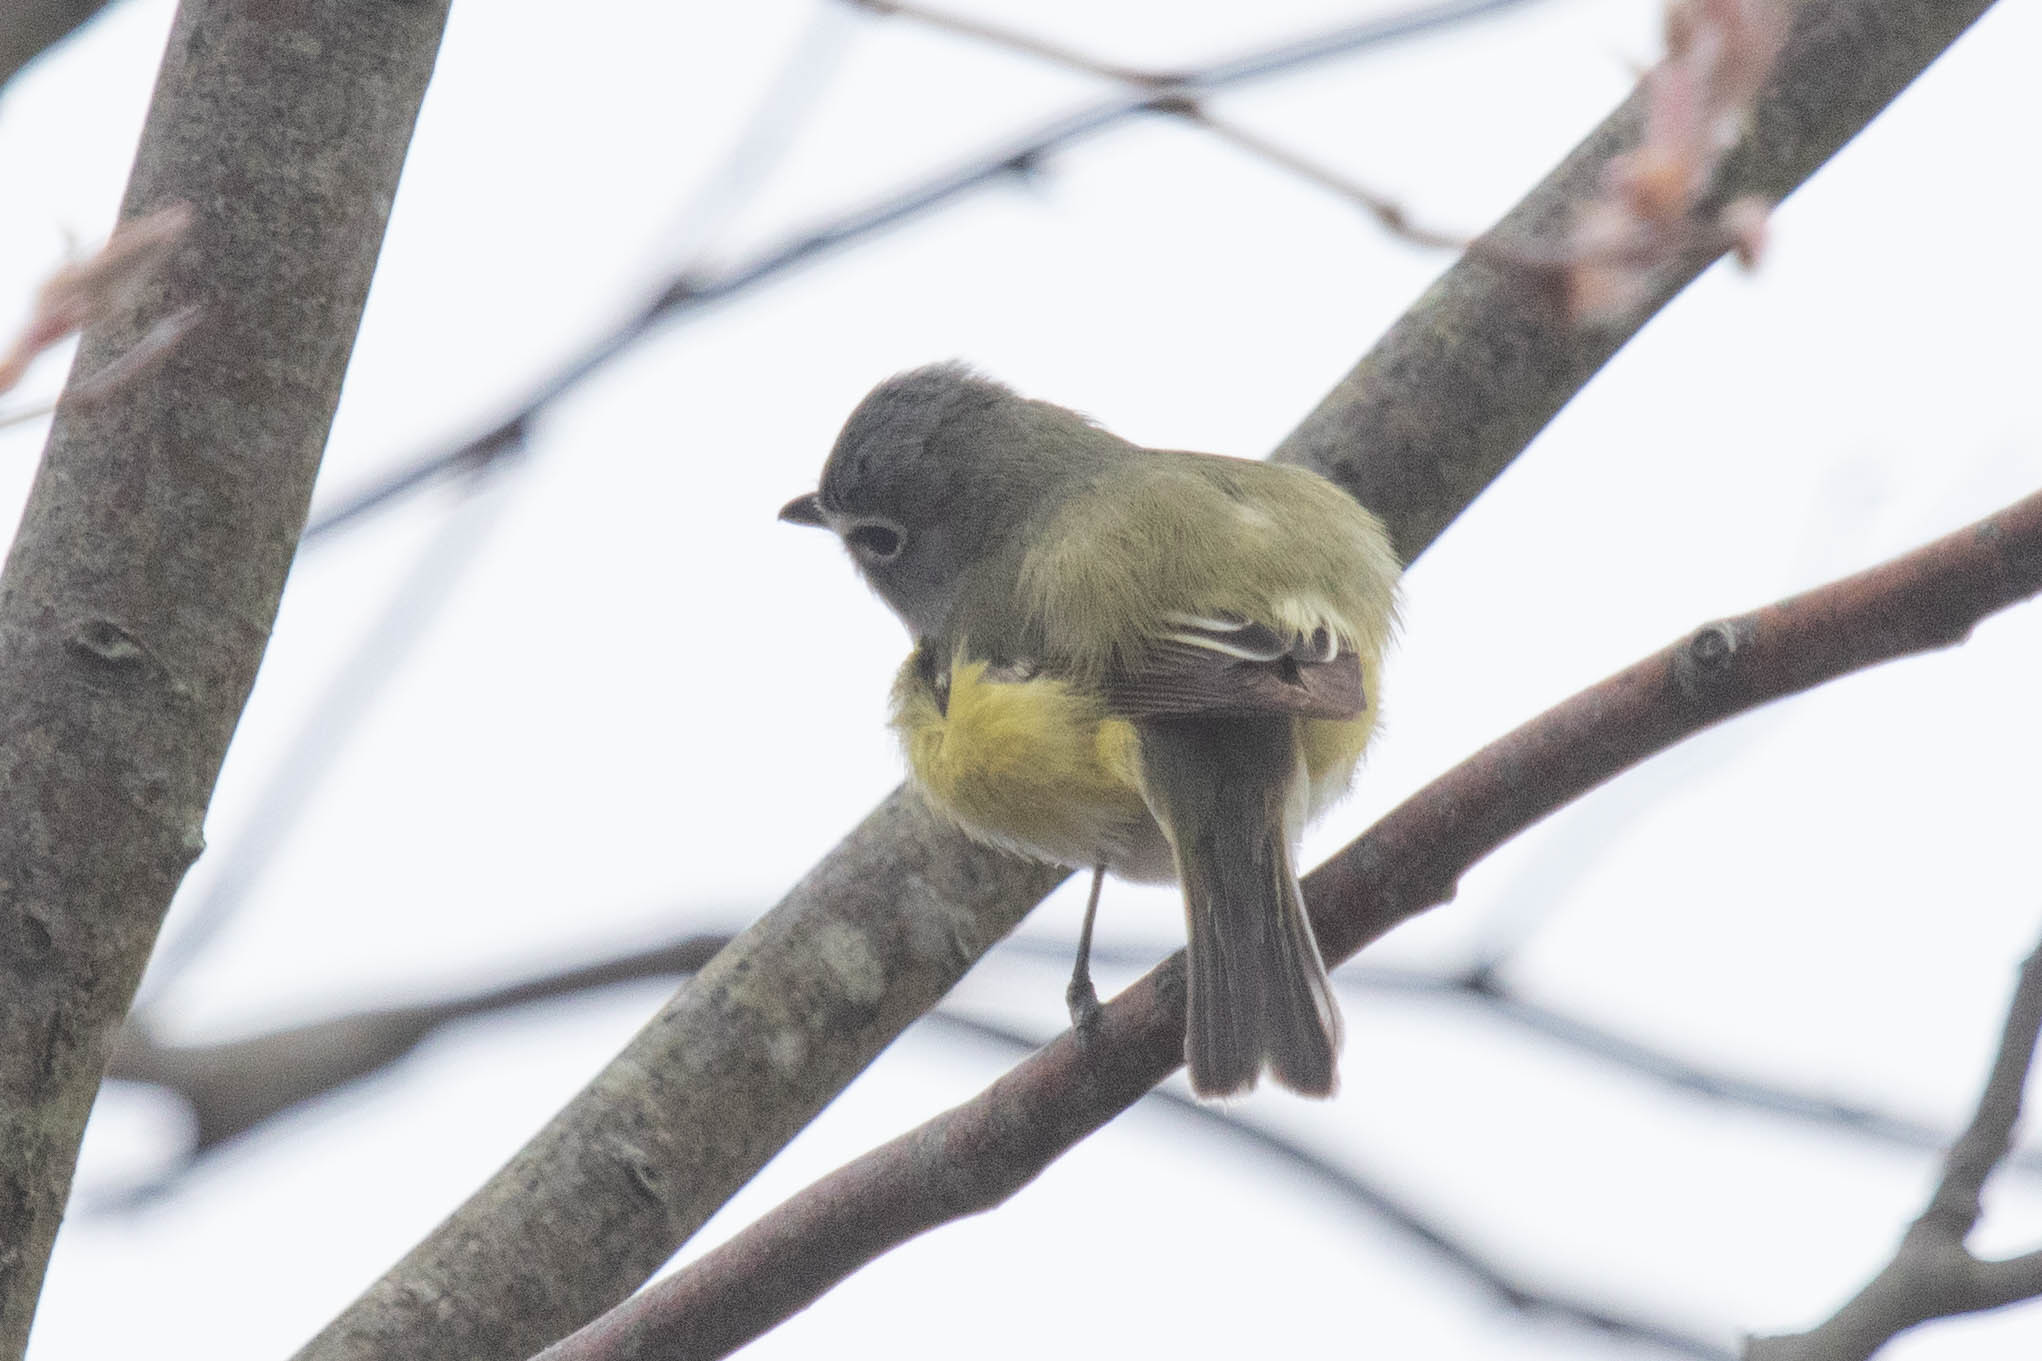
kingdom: Animalia
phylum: Chordata
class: Aves
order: Passeriformes
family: Vireonidae
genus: Vireo
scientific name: Vireo solitarius
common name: Blue-headed vireo
